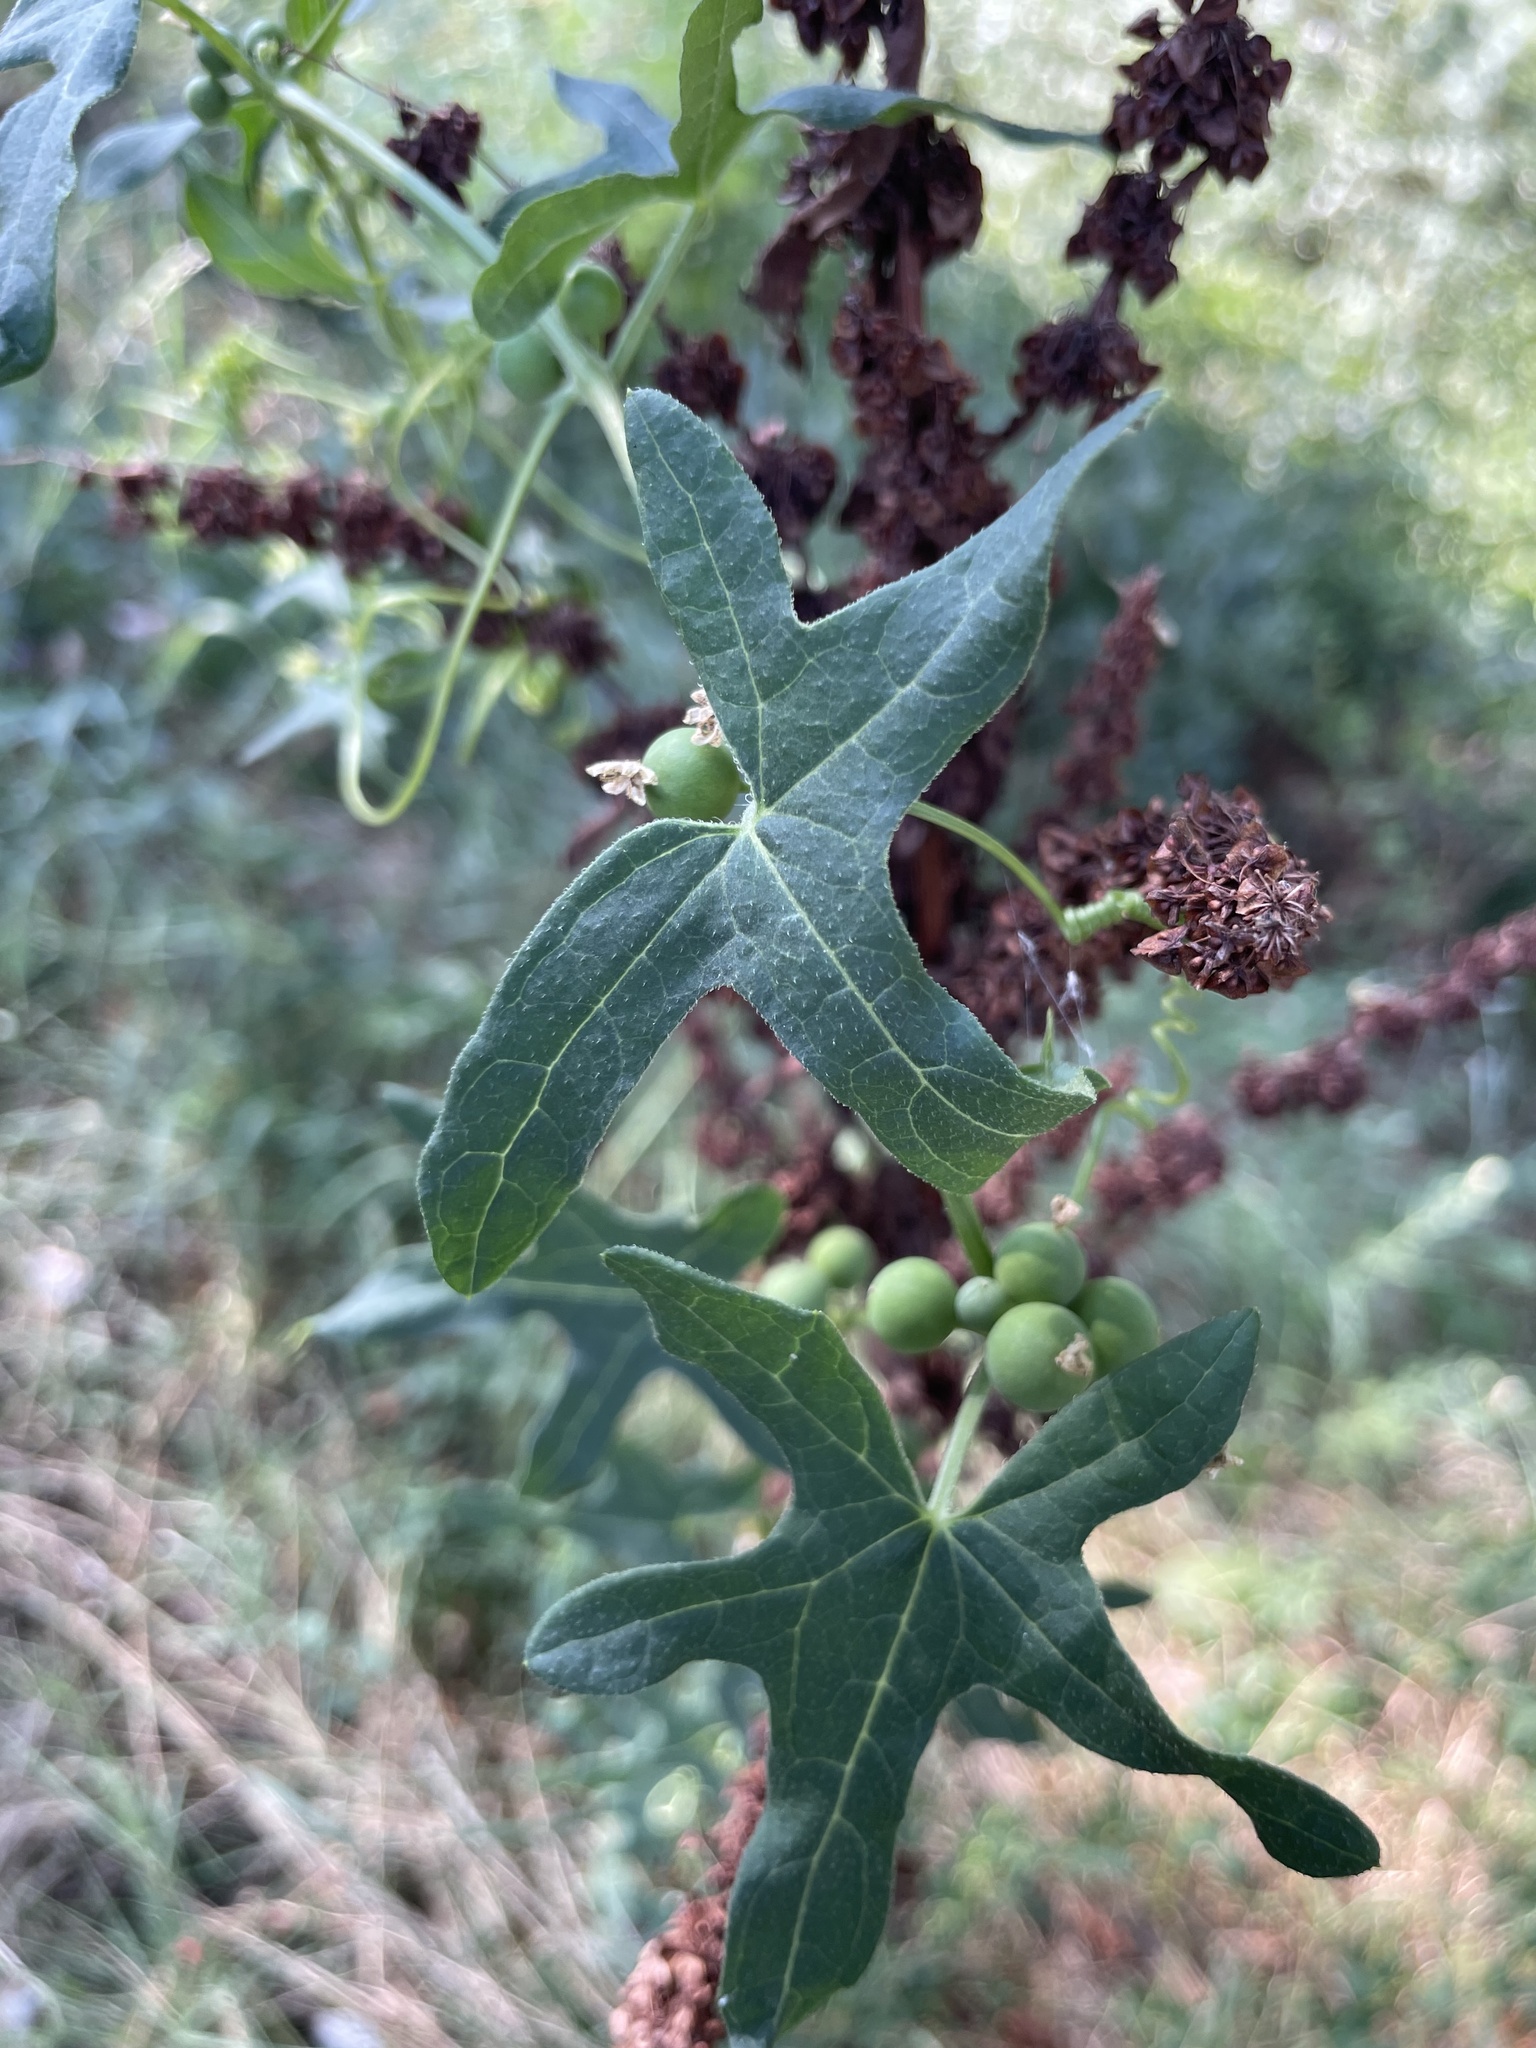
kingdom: Plantae
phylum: Tracheophyta
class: Magnoliopsida
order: Cucurbitales
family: Cucurbitaceae
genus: Bryonia
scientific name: Bryonia dioica
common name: White bryony
